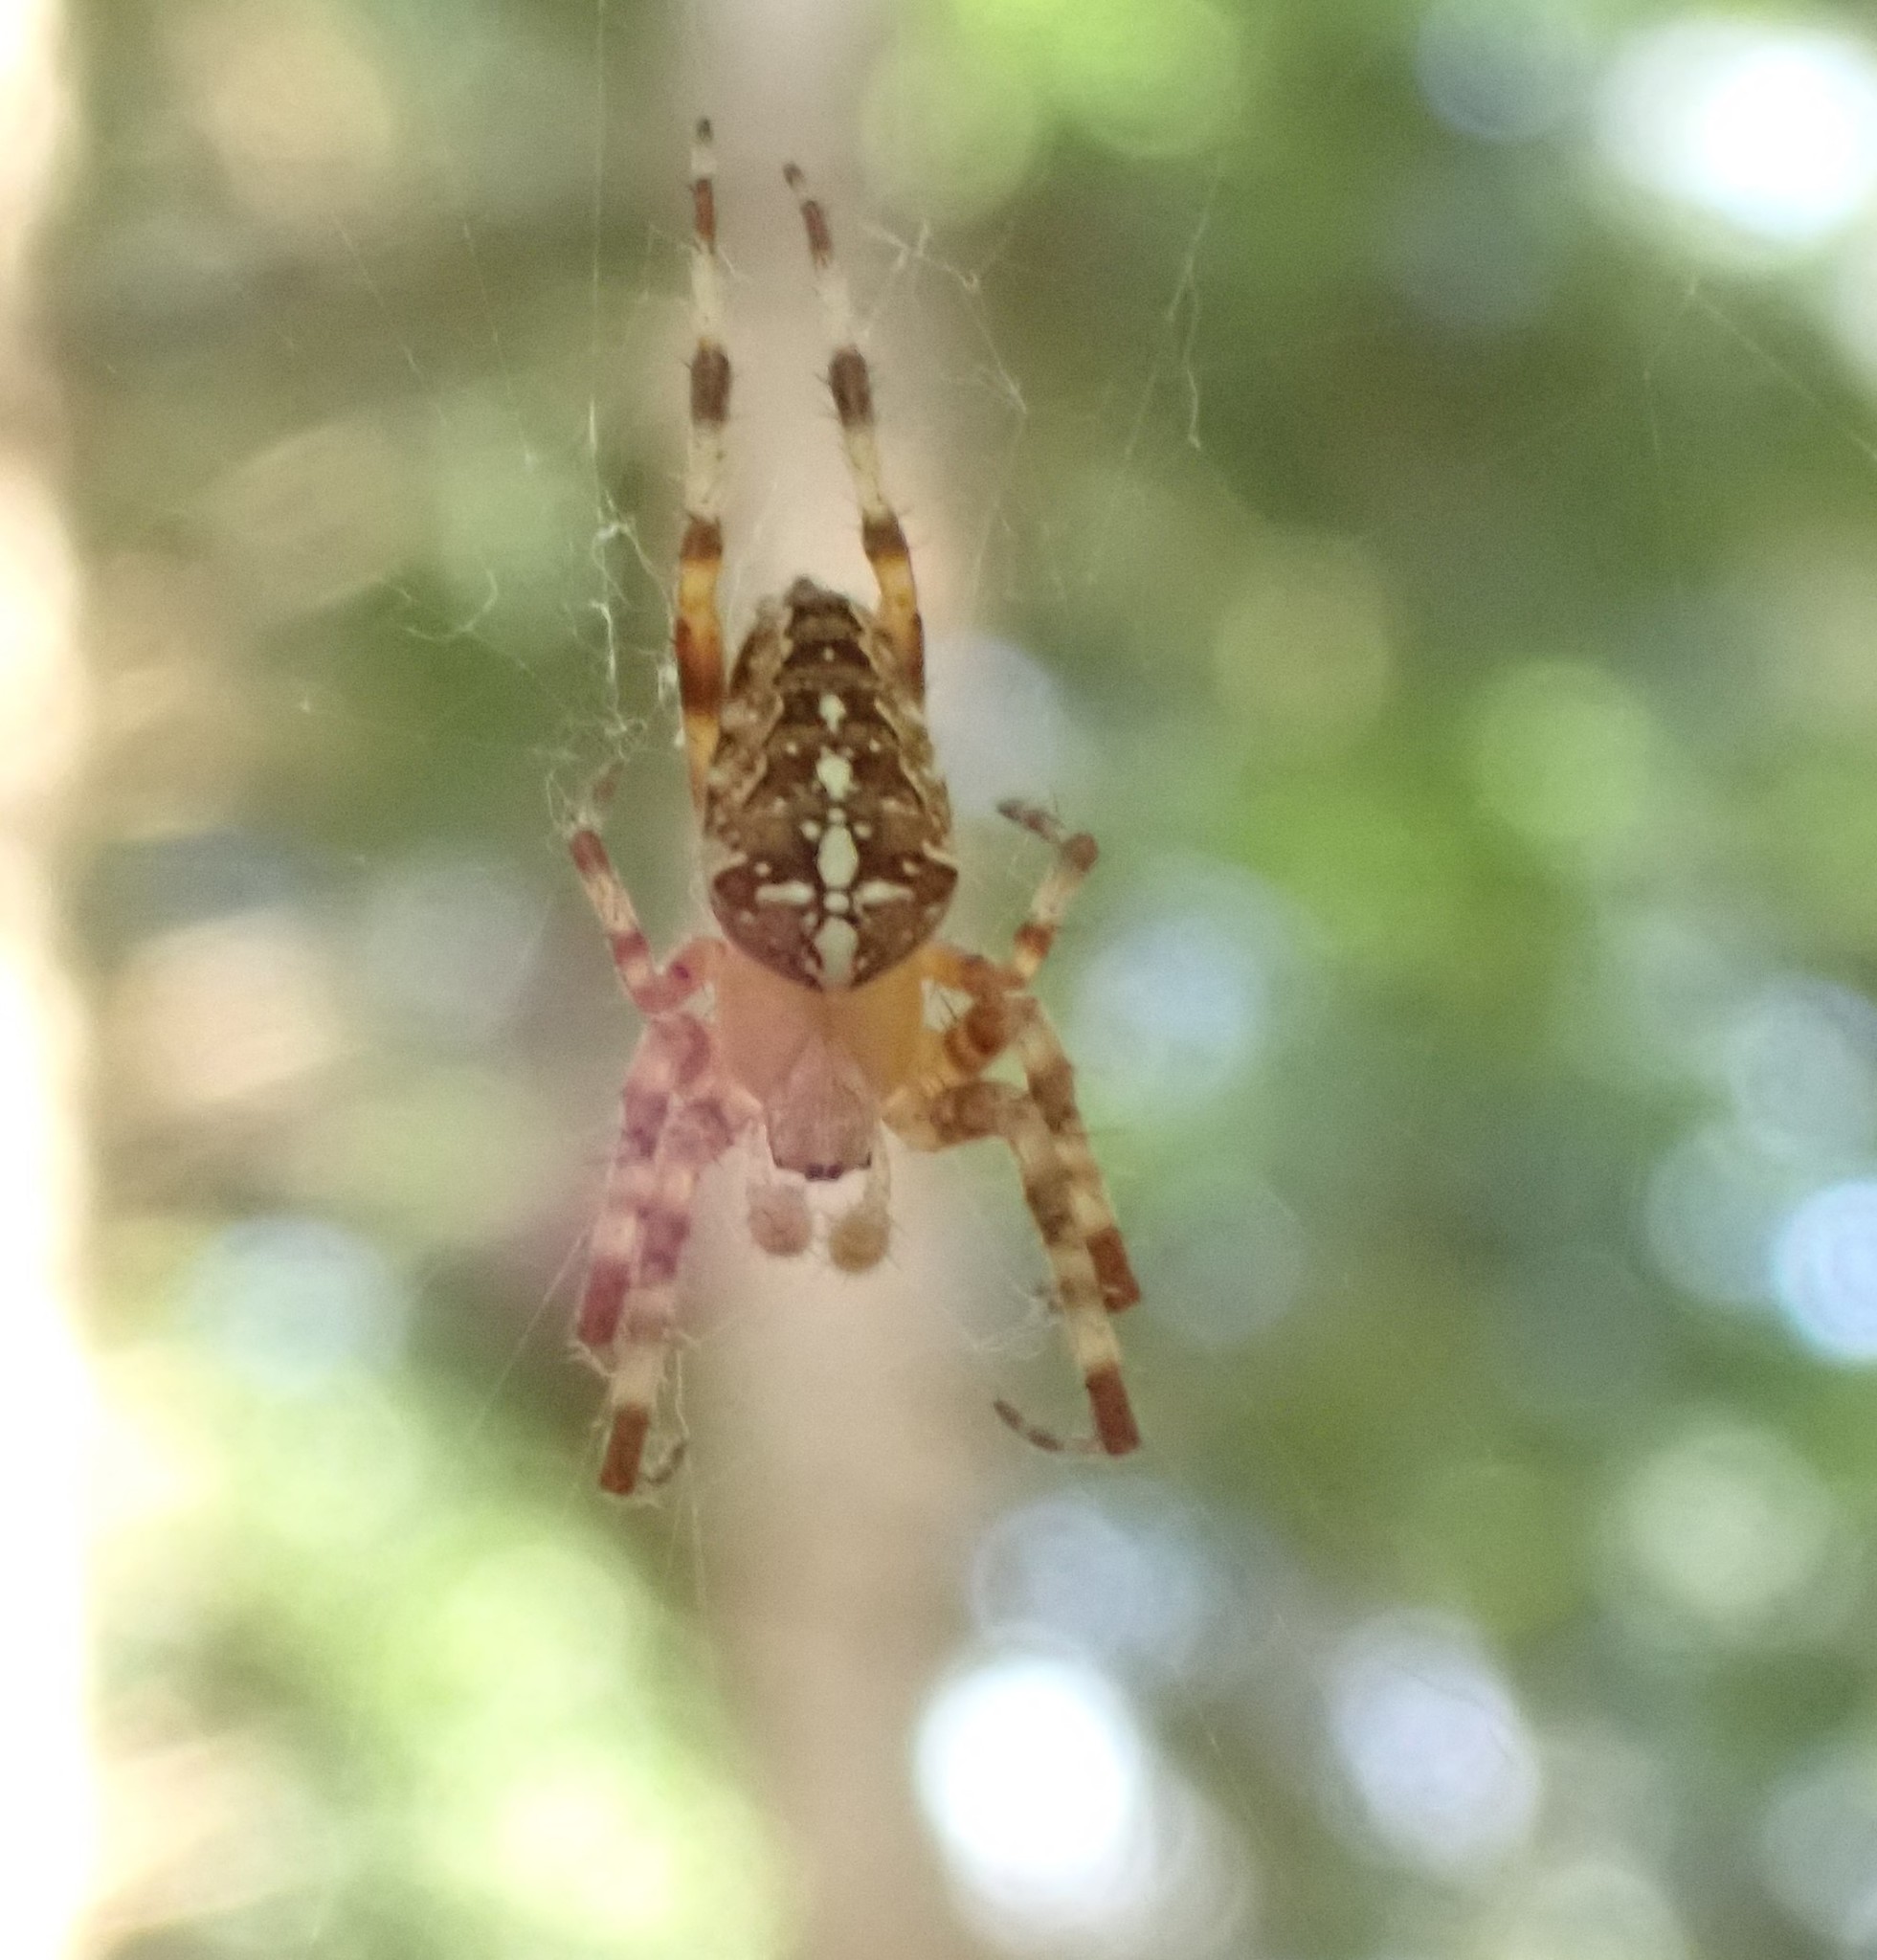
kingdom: Animalia
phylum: Arthropoda
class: Arachnida
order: Araneae
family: Araneidae
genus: Araneus
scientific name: Araneus diadematus
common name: Cross orbweaver
